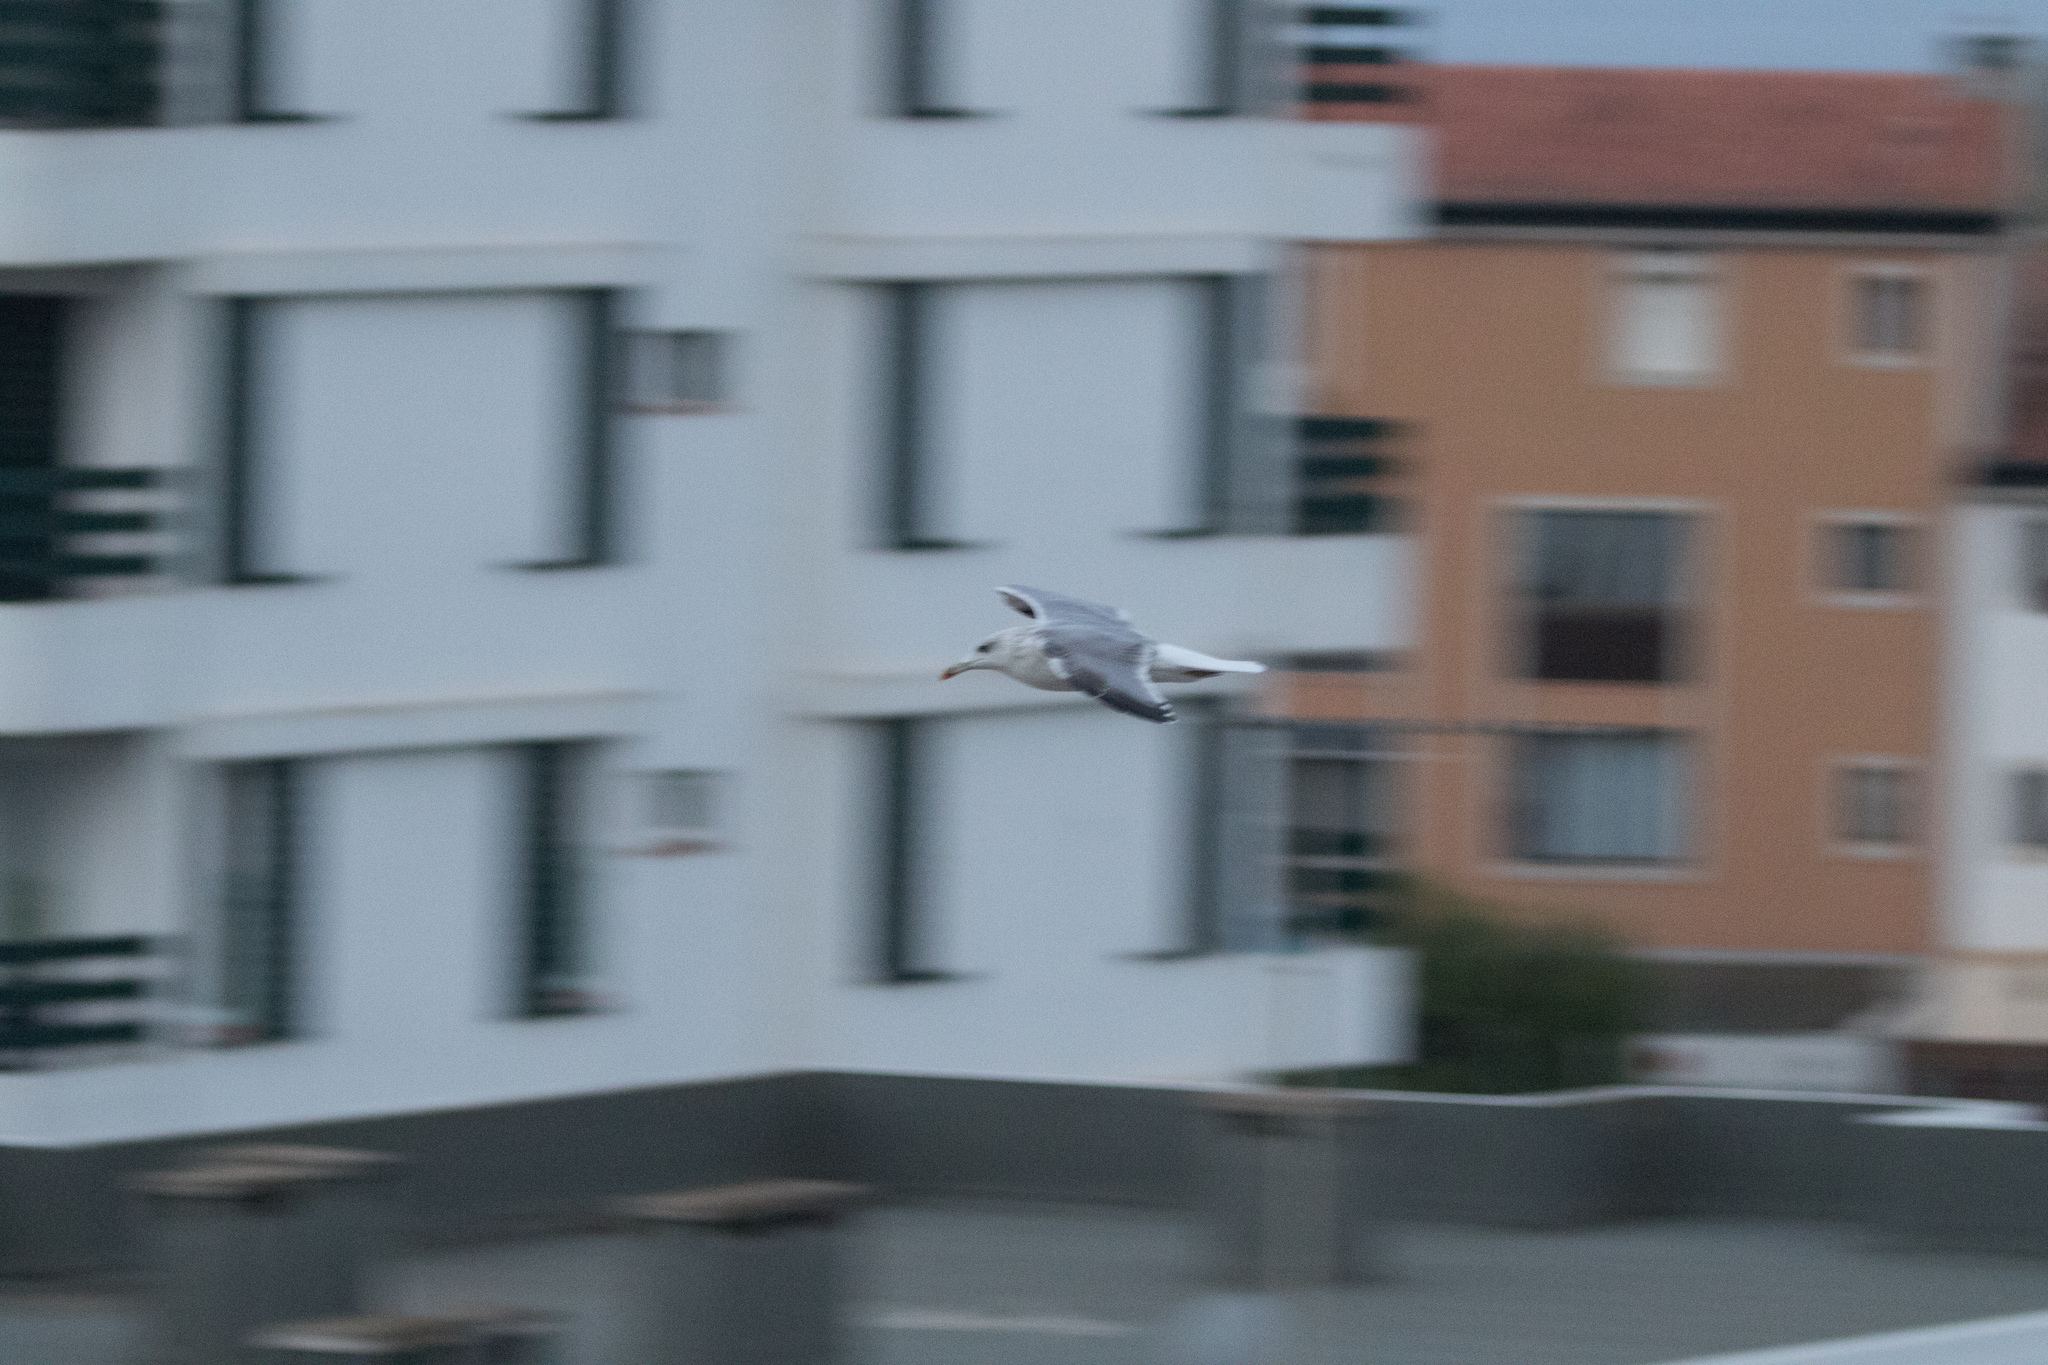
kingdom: Animalia
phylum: Chordata
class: Aves
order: Charadriiformes
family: Laridae
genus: Larus
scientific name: Larus michahellis
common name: Yellow-legged gull
